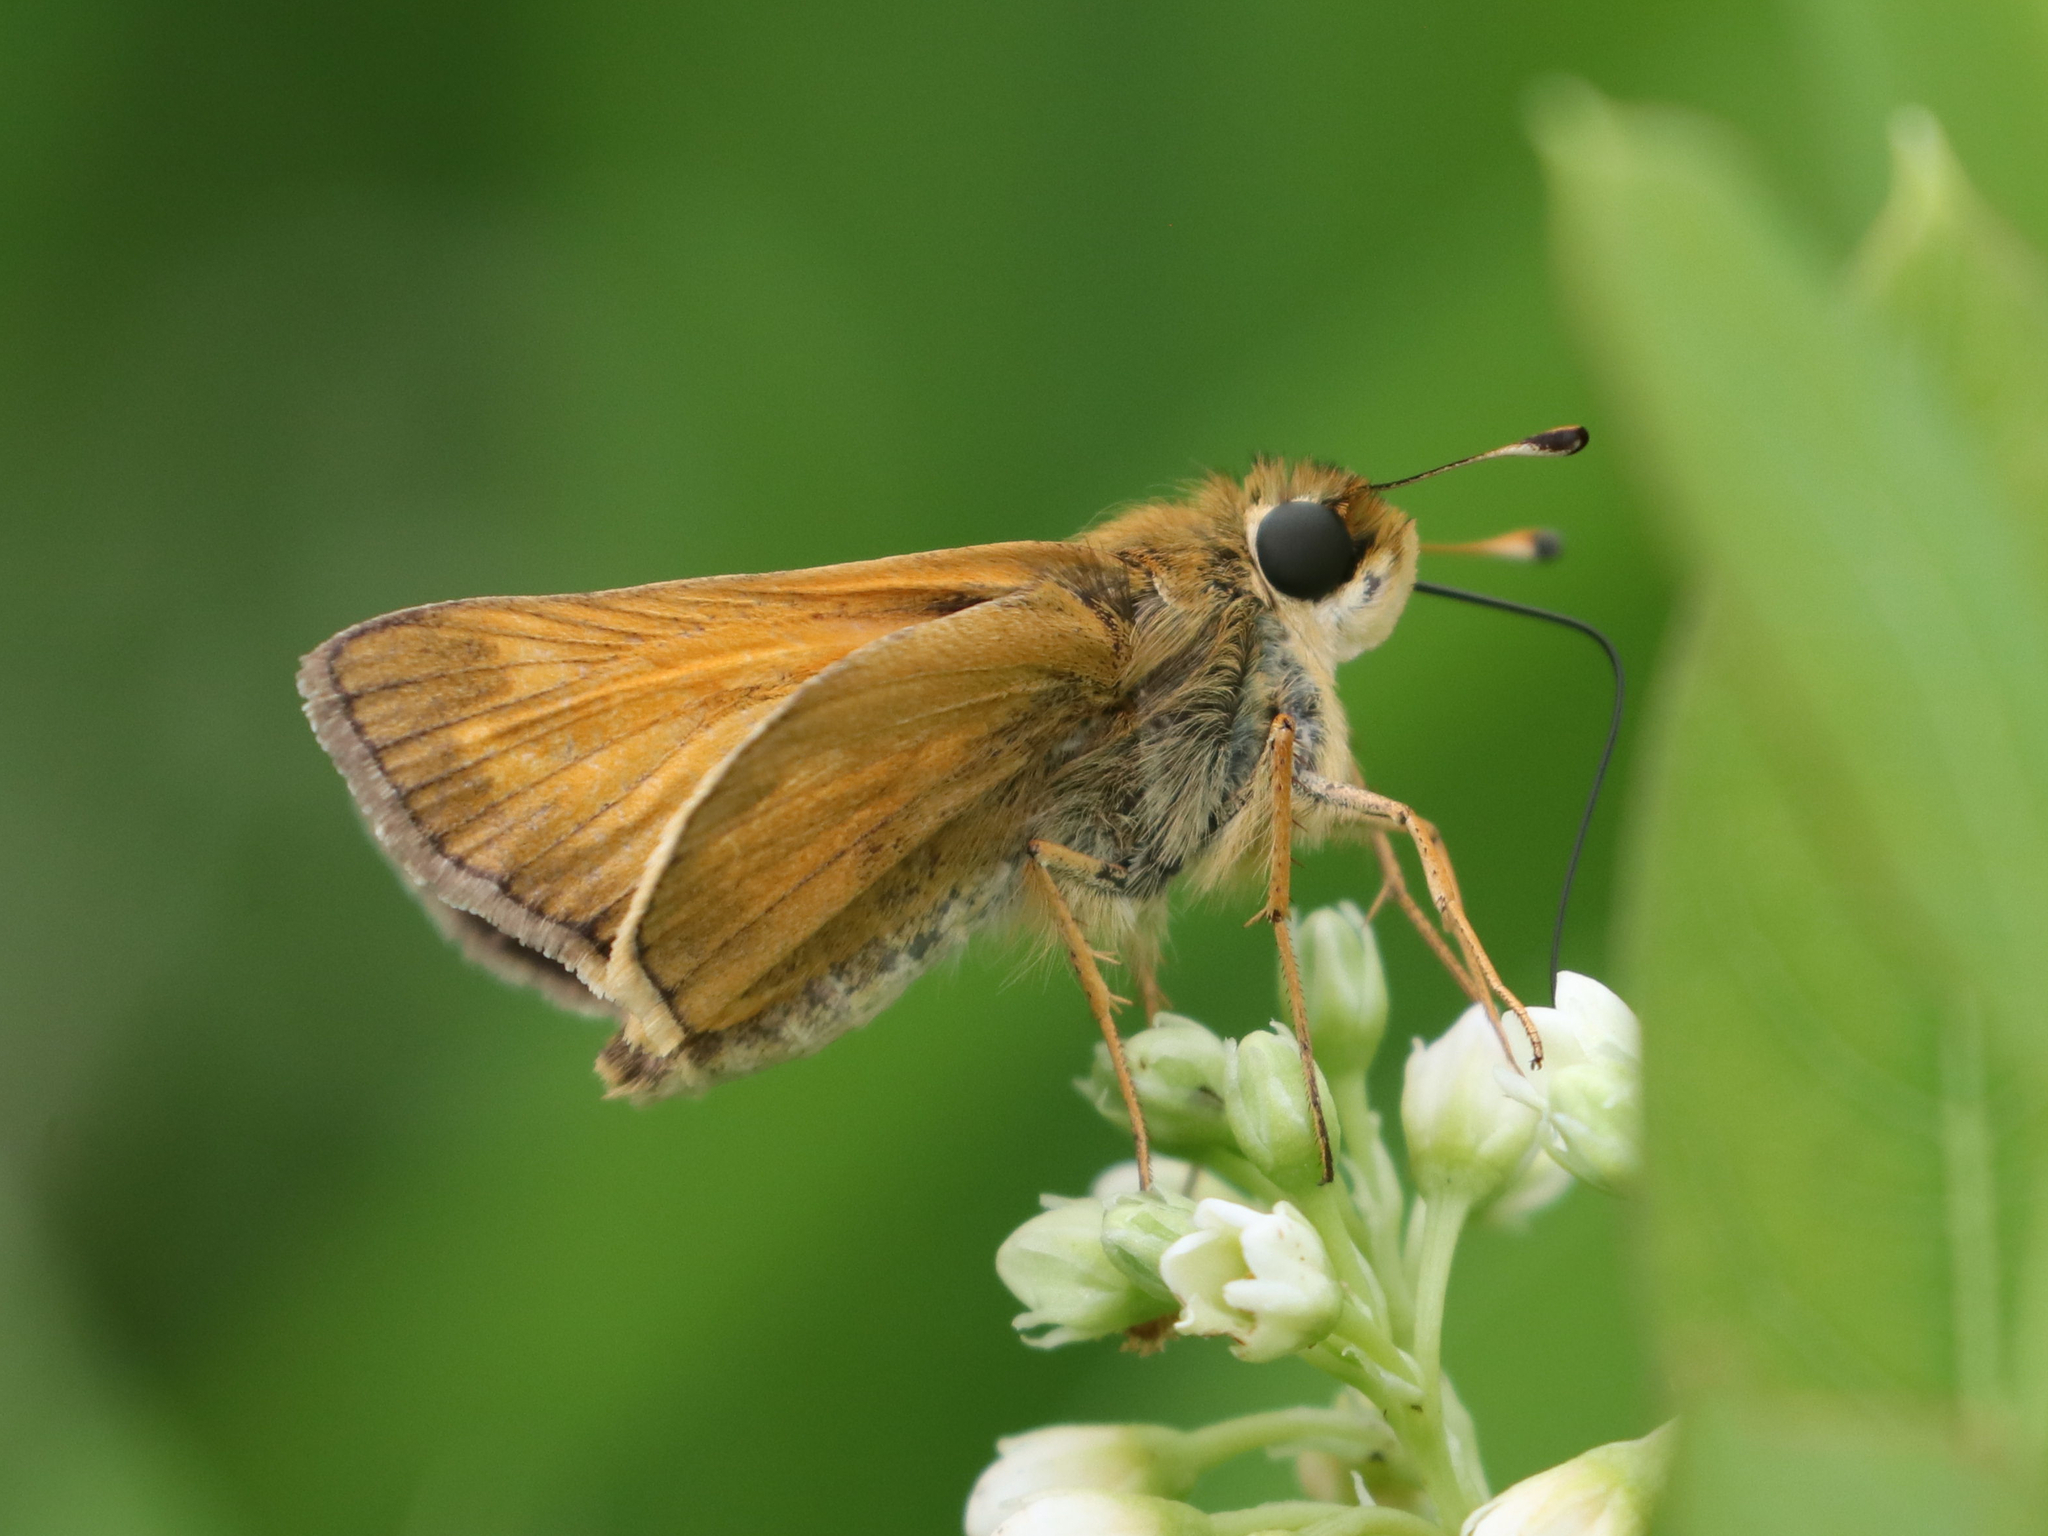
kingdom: Animalia
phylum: Arthropoda
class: Insecta
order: Lepidoptera
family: Hesperiidae
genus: Atalopedes
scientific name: Atalopedes
